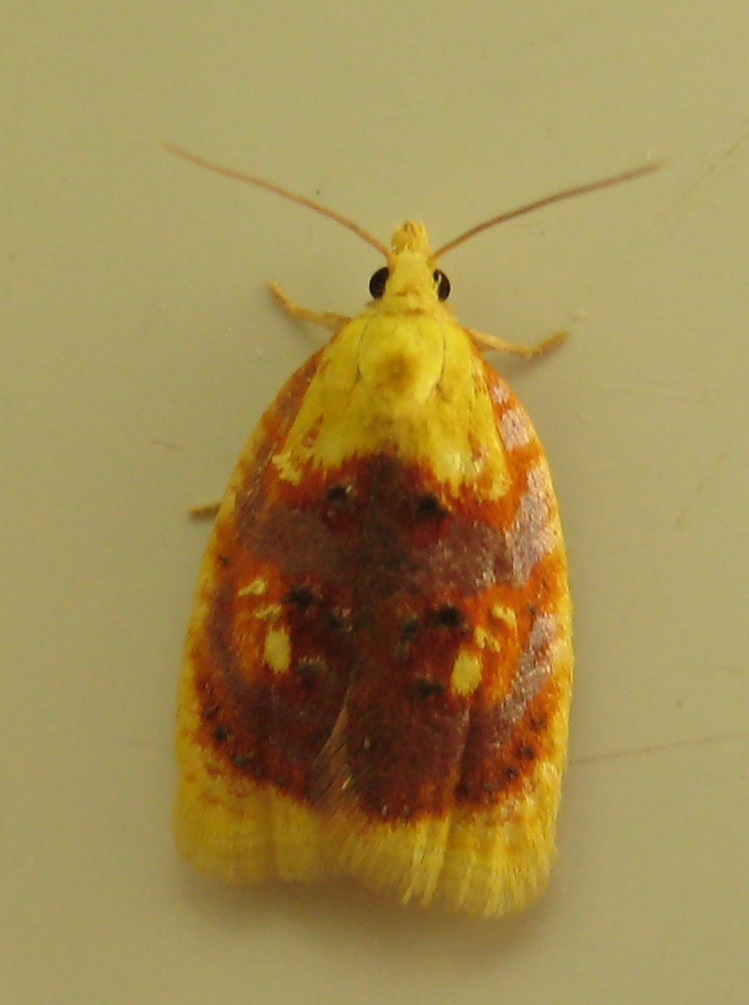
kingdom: Animalia
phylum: Arthropoda
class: Insecta
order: Lepidoptera
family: Tortricidae
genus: Acleris
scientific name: Acleris curvalana
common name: Blueberry leaftier moth
